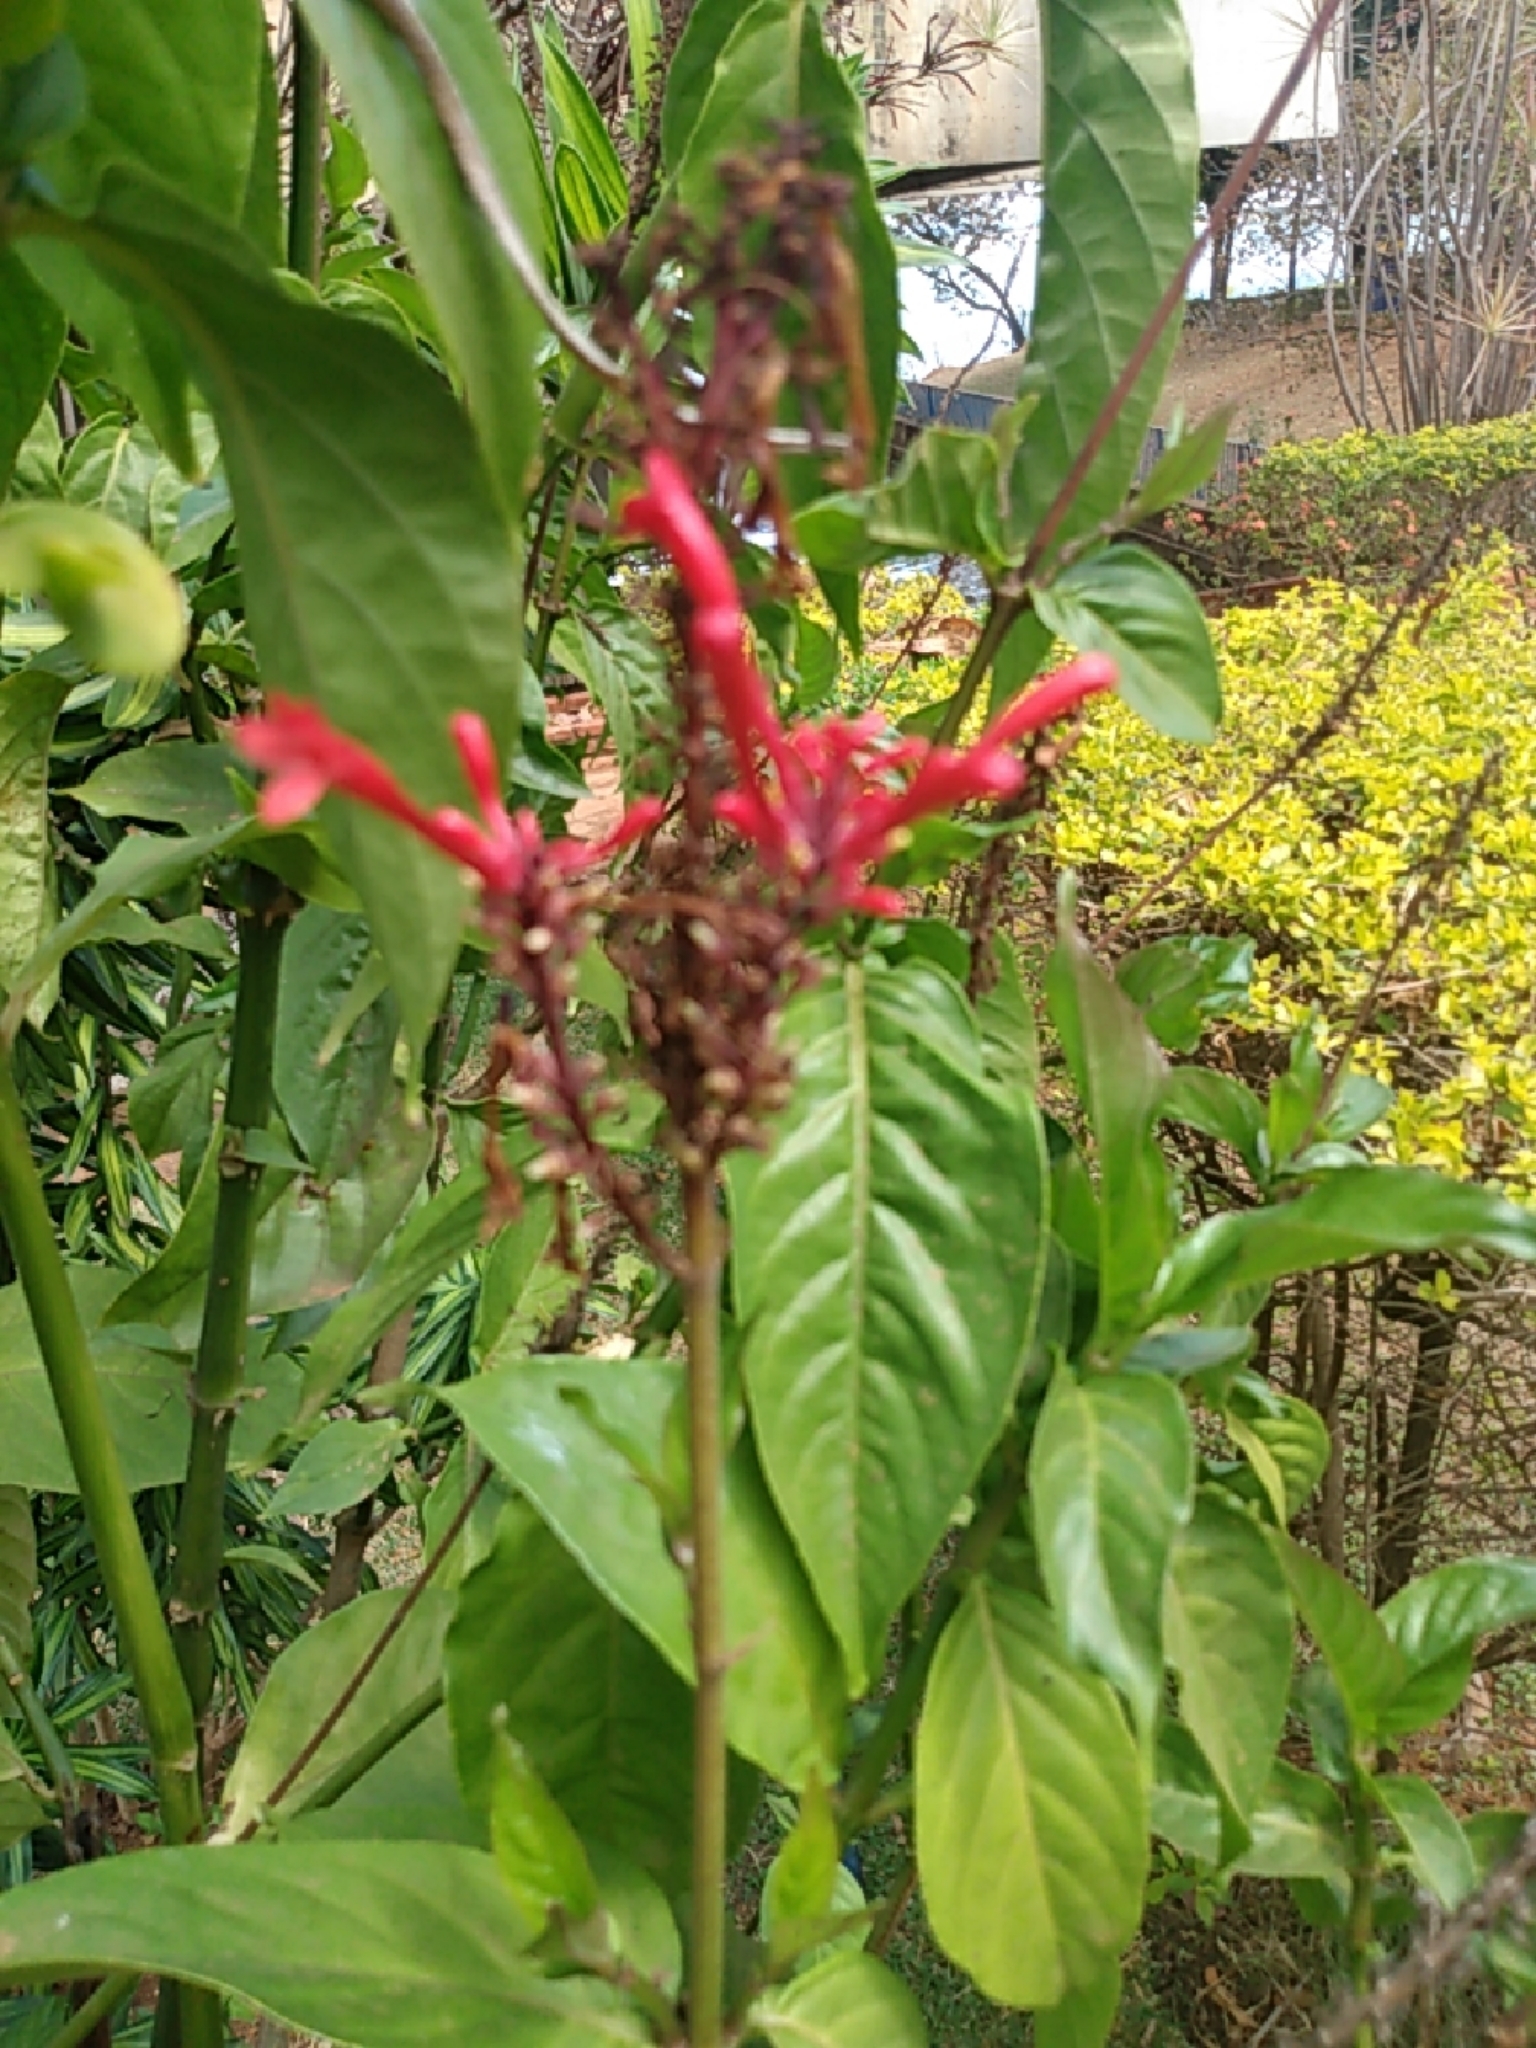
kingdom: Plantae
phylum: Tracheophyta
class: Magnoliopsida
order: Gentianales
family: Rubiaceae
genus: Hamelia
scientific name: Hamelia patens
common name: Redhead
